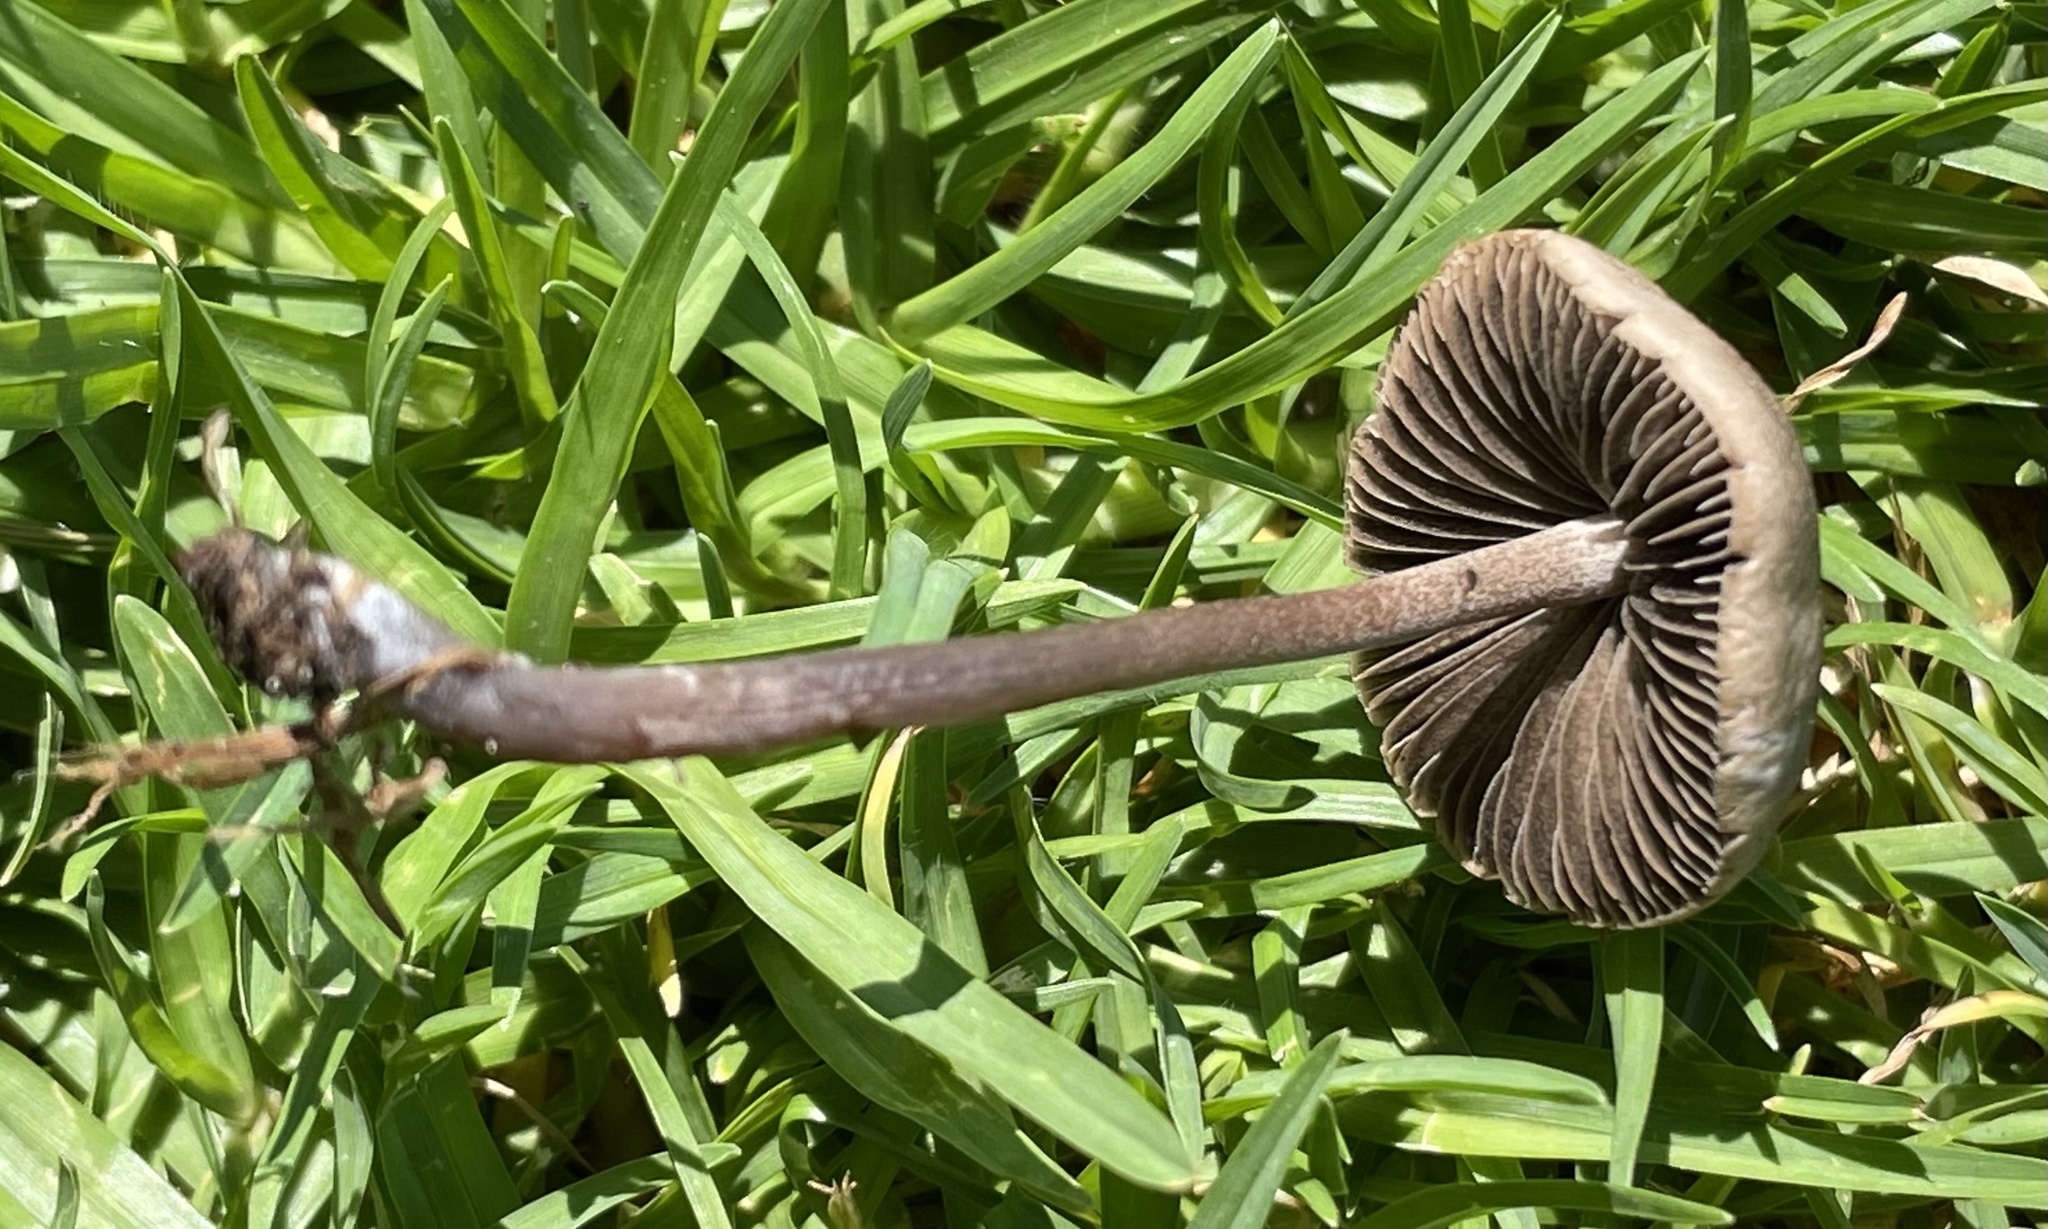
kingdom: Fungi
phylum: Basidiomycota
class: Agaricomycetes
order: Agaricales
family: Bolbitiaceae
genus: Panaeolus
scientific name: Panaeolus cinctulus
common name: Banded mottlegill
